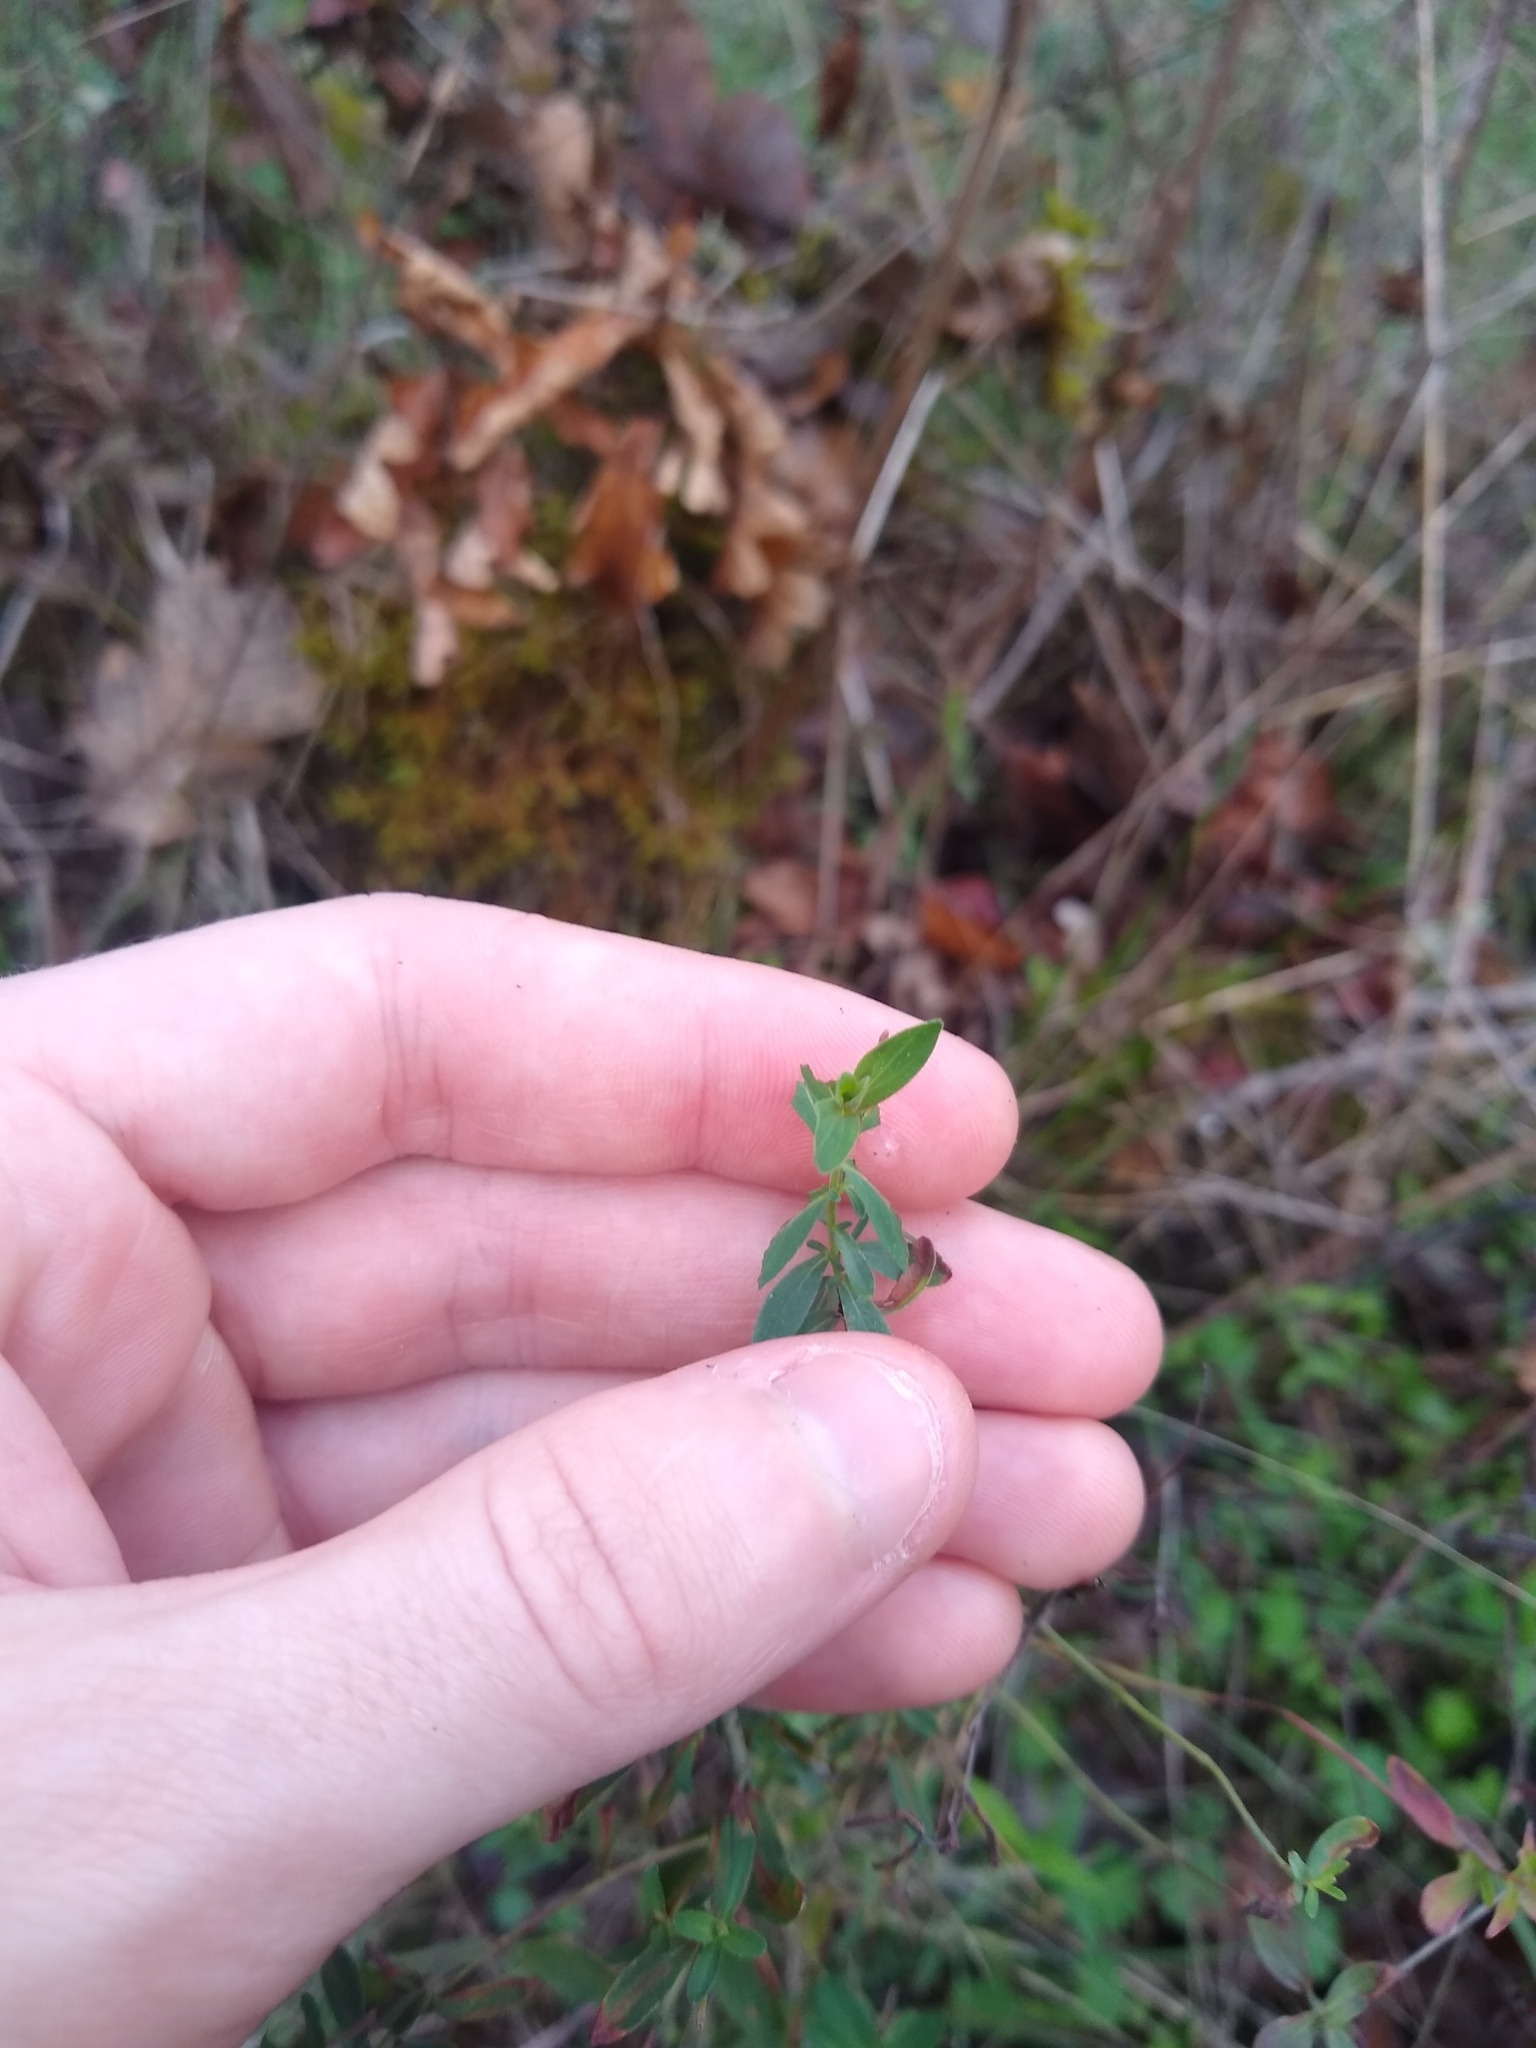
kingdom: Plantae
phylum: Tracheophyta
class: Magnoliopsida
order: Malpighiales
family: Hypericaceae
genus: Hypericum
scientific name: Hypericum perforatum
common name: Common st. johnswort
